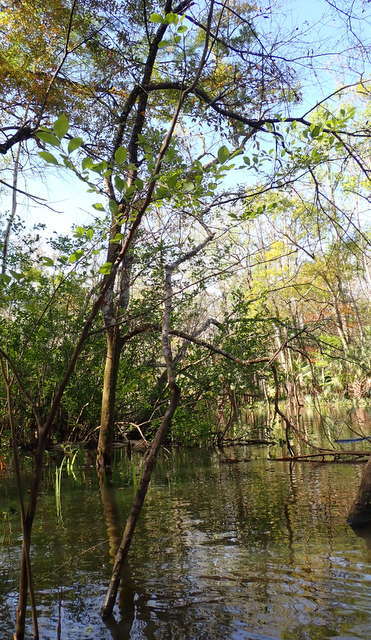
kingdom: Plantae
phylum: Tracheophyta
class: Magnoliopsida
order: Ericales
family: Styracaceae
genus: Styrax
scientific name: Styrax americanus
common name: American snowbell
